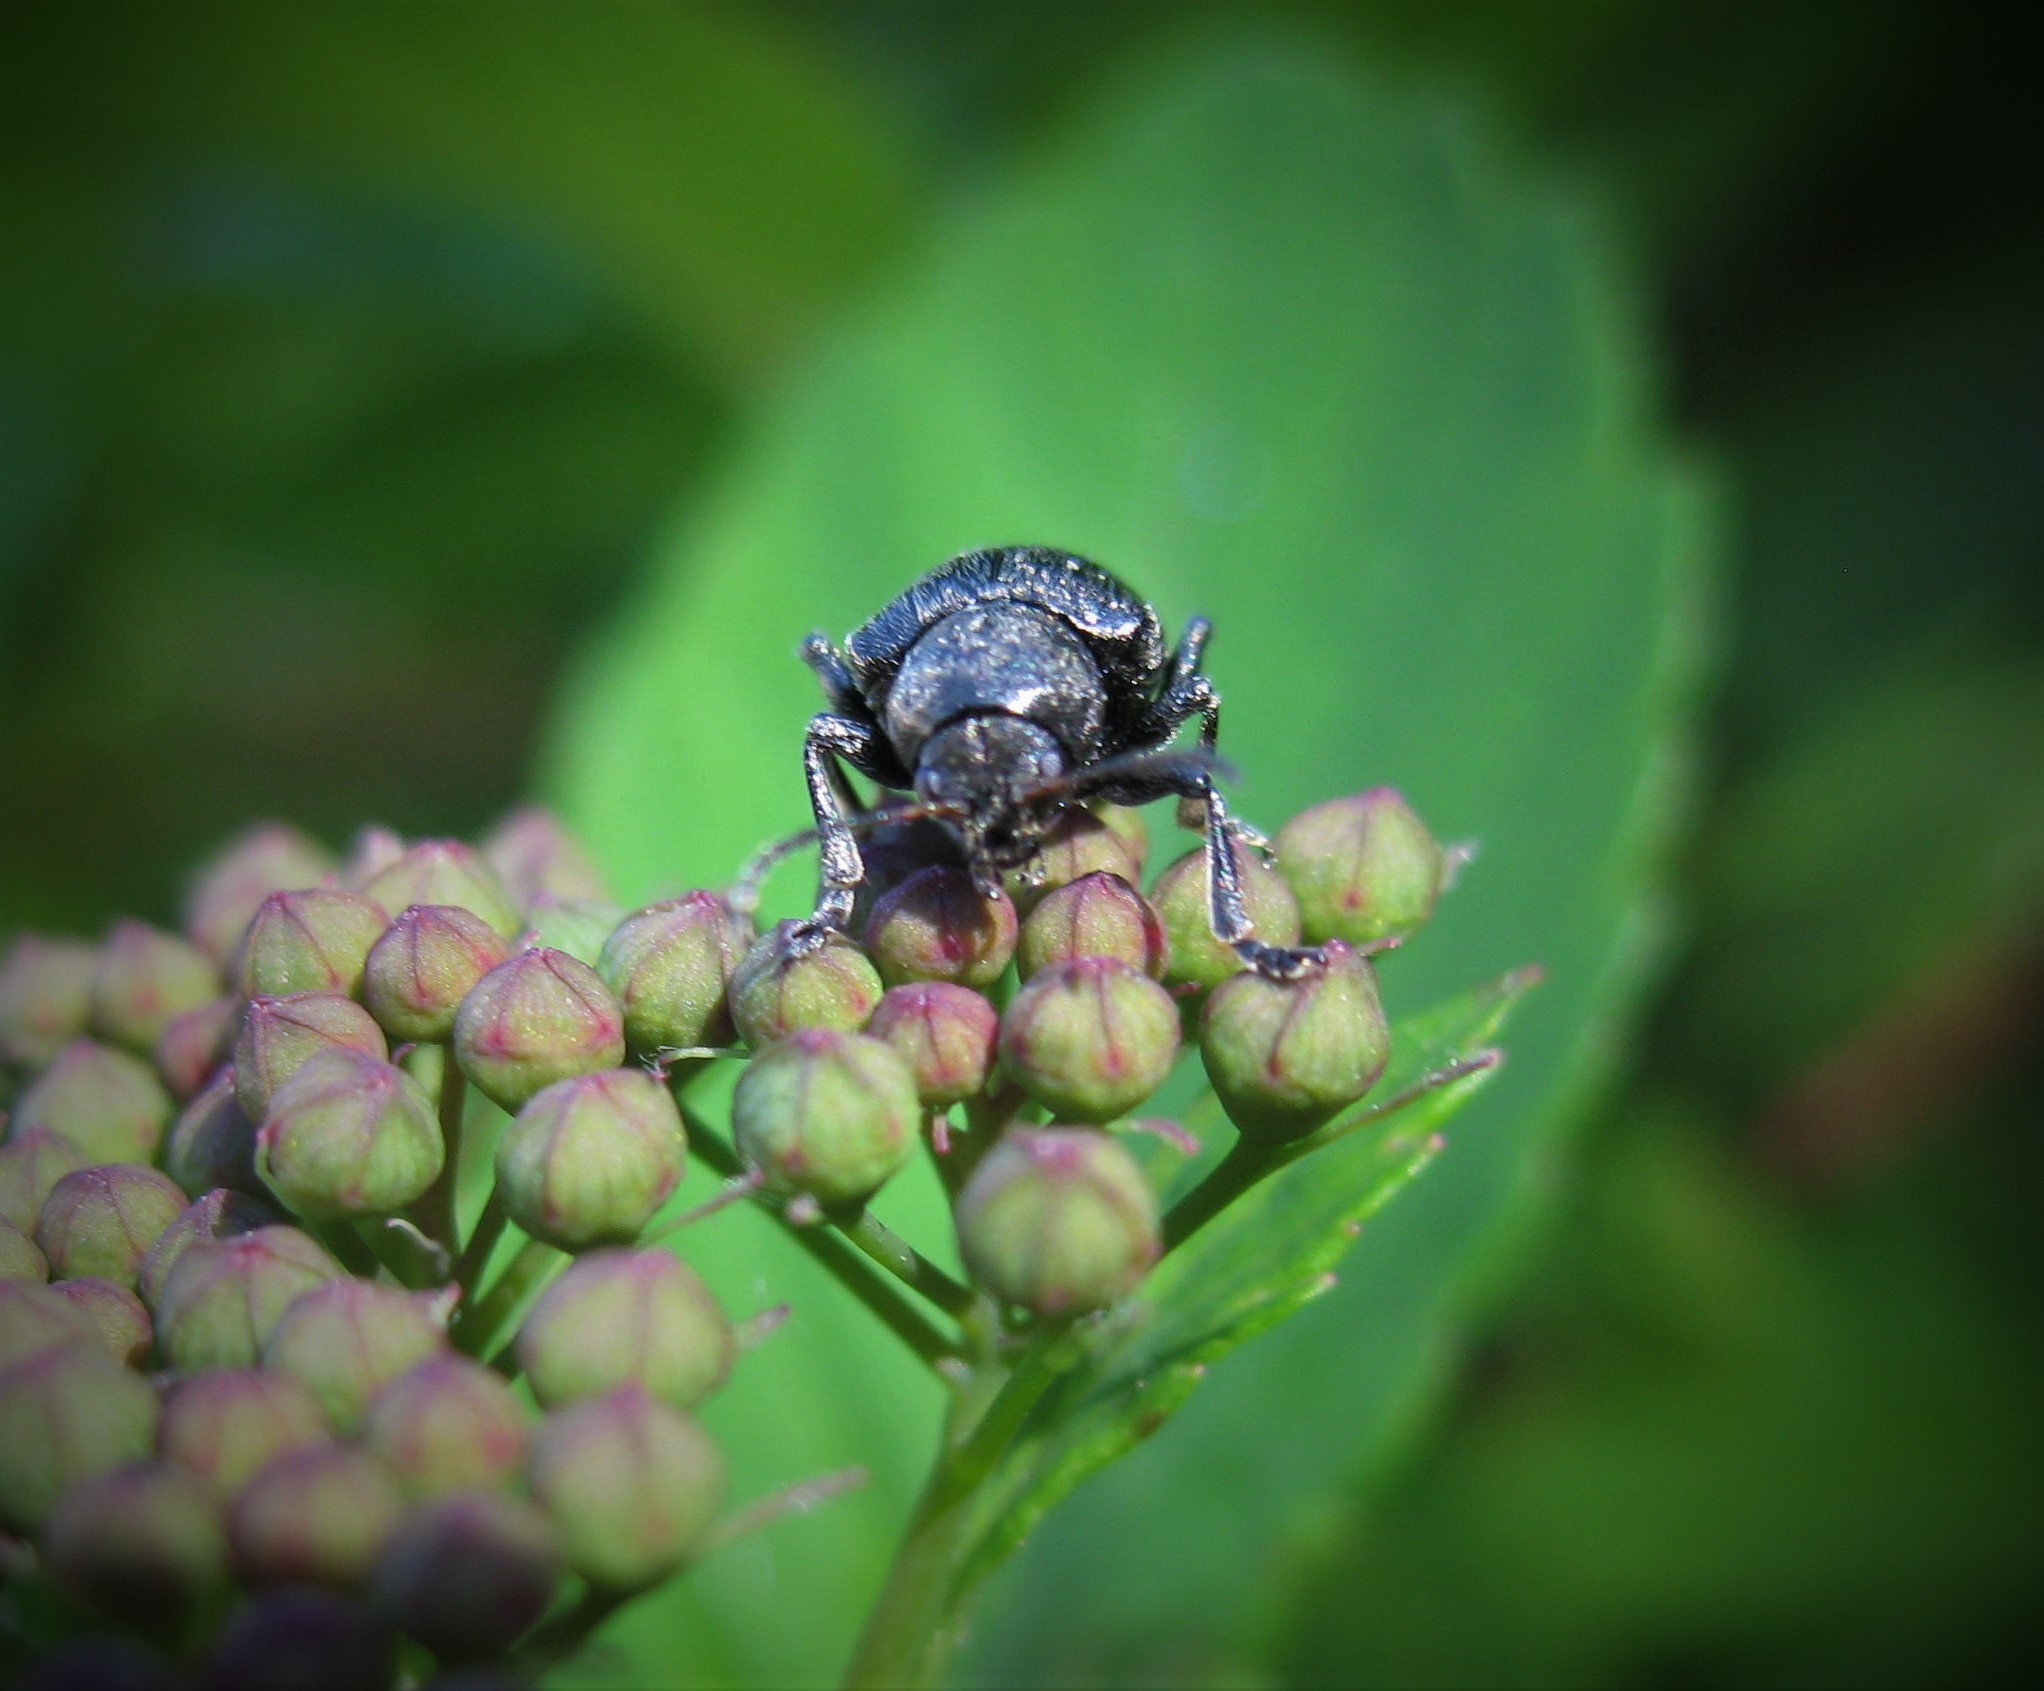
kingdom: Animalia
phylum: Arthropoda
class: Insecta
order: Coleoptera
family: Chrysomelidae
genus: Bromius
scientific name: Bromius obscurus
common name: Western grape rootworm
